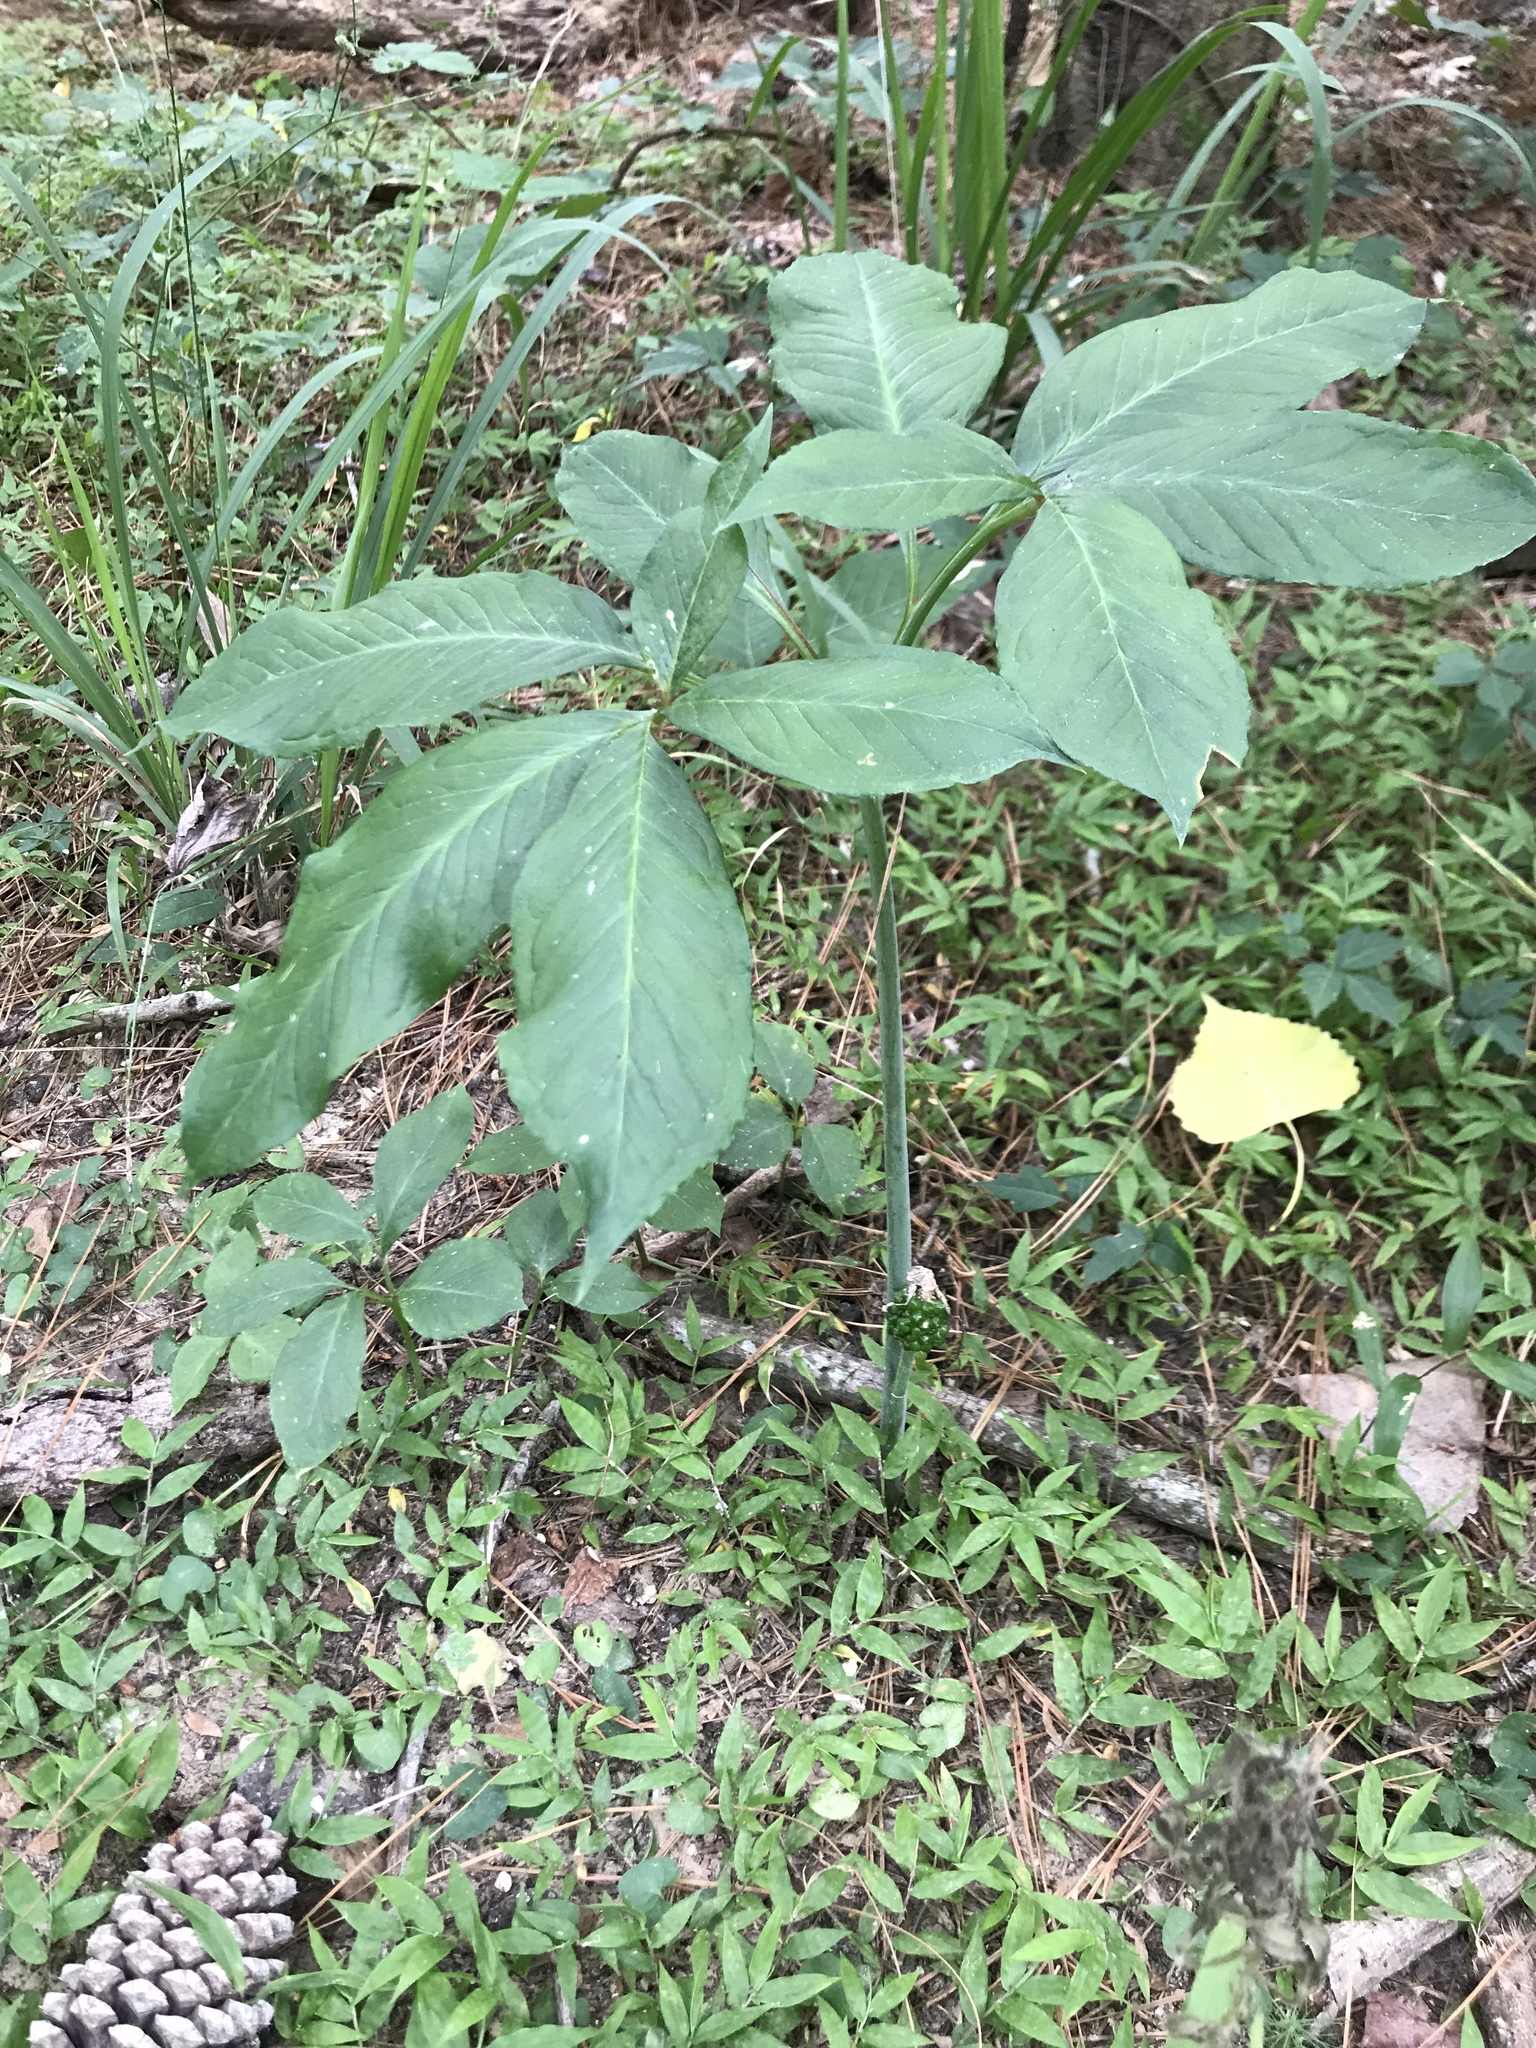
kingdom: Plantae
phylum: Tracheophyta
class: Liliopsida
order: Alismatales
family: Araceae
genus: Arisaema
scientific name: Arisaema dracontium
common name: Dragon-arum
